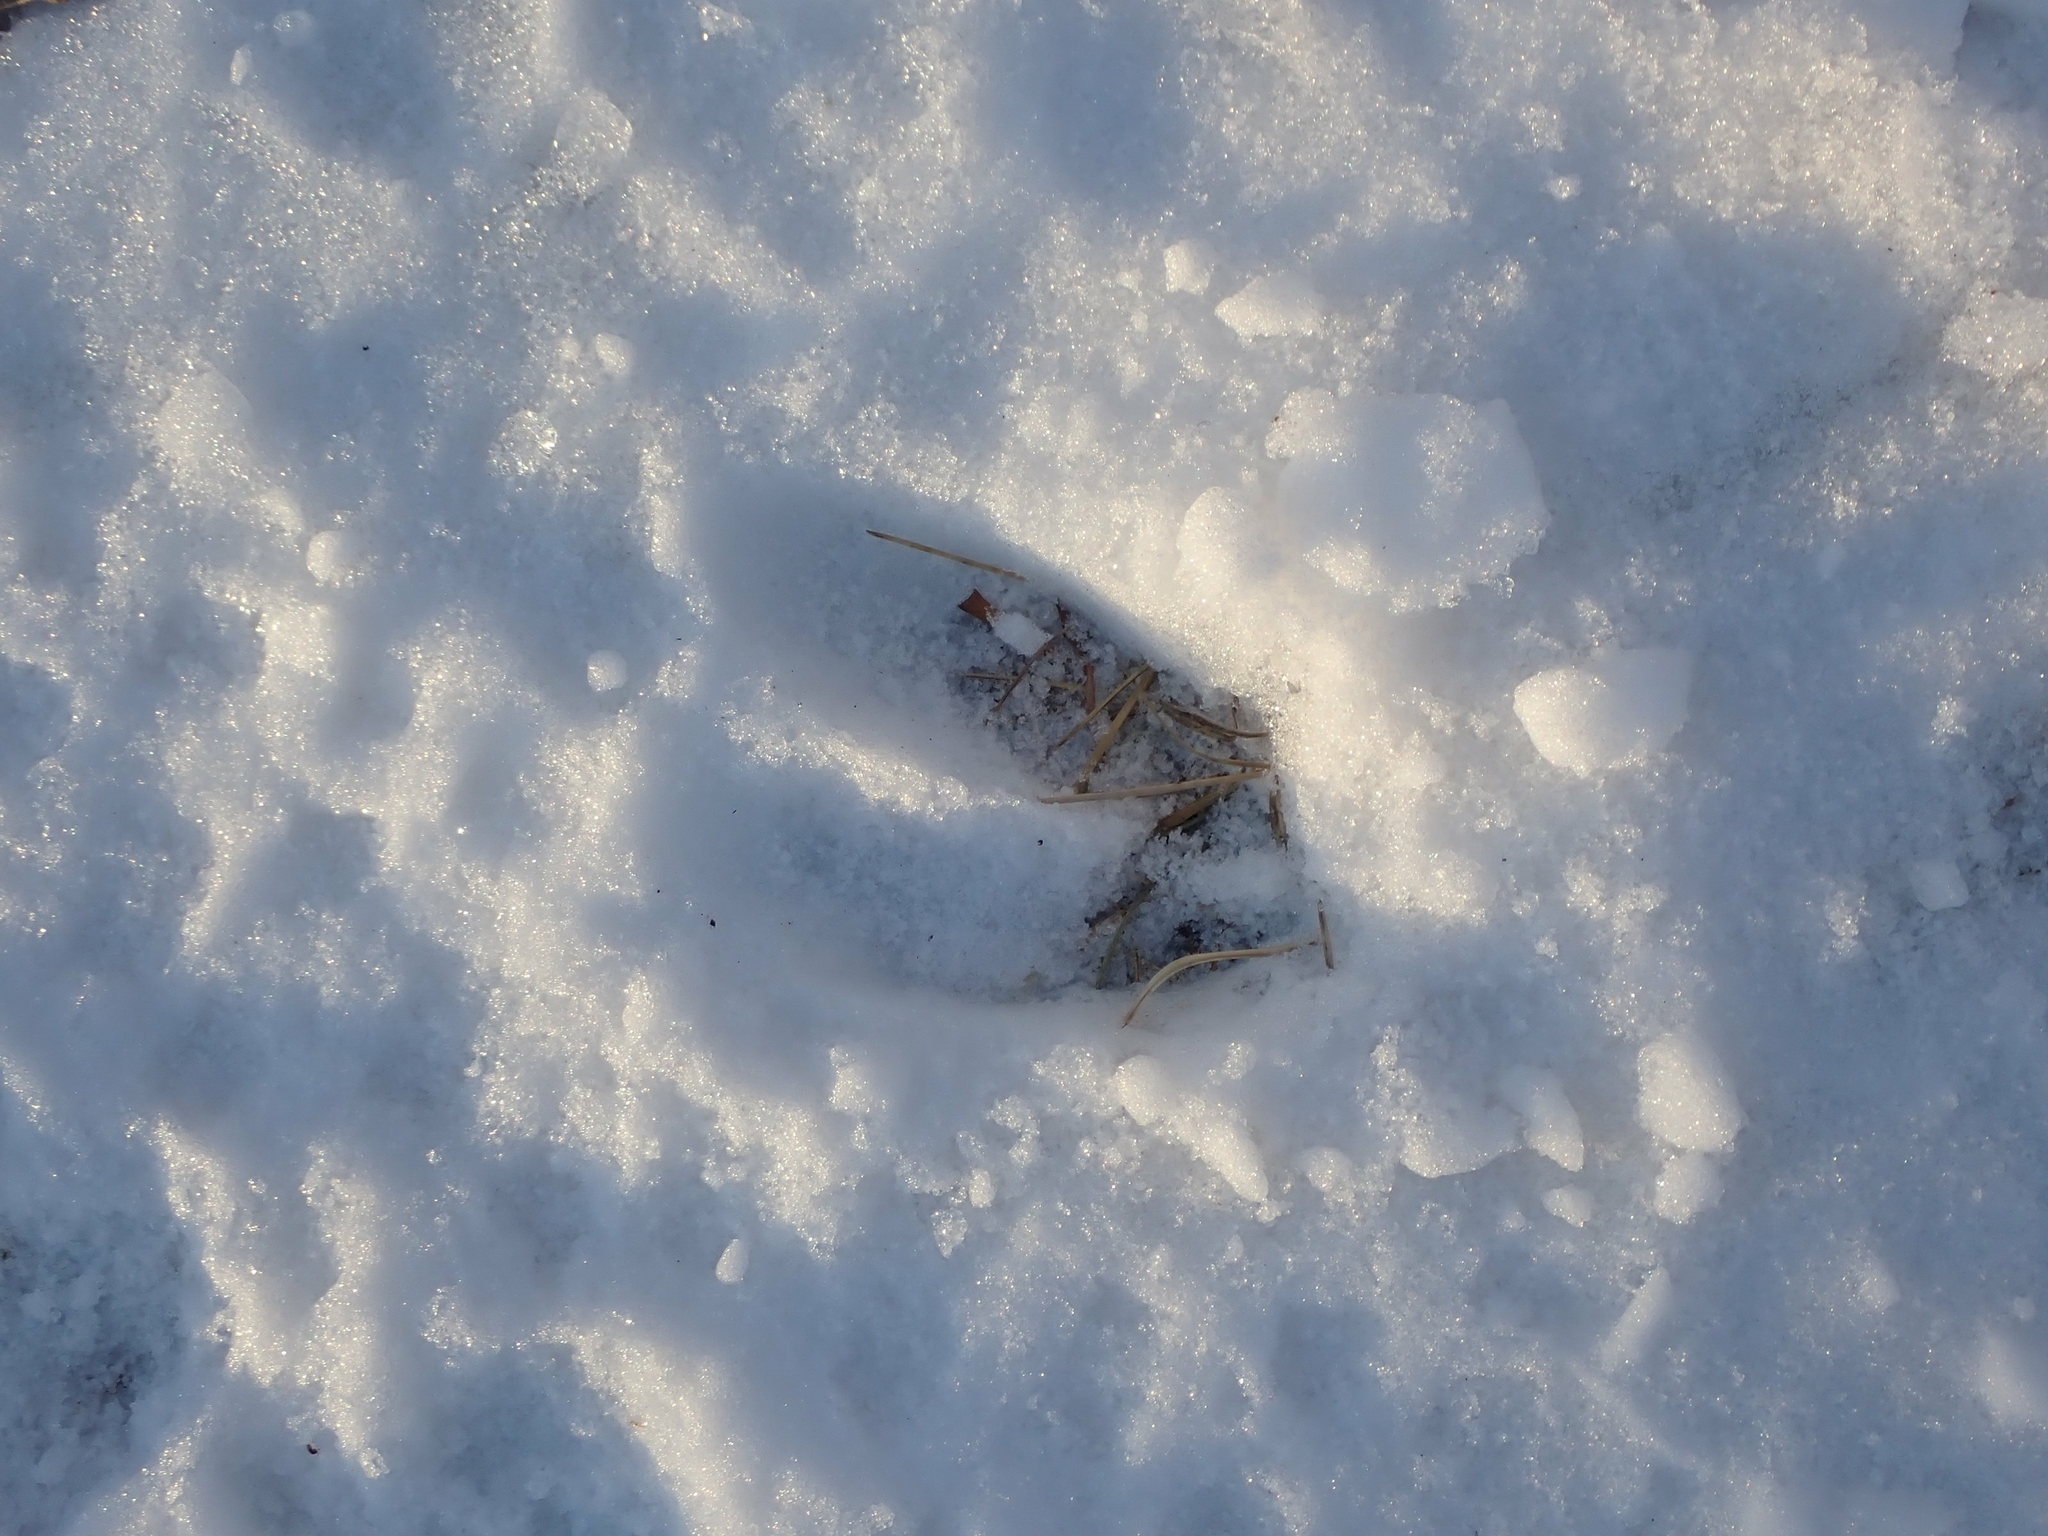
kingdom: Animalia
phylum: Chordata
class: Mammalia
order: Artiodactyla
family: Cervidae
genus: Odocoileus
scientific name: Odocoileus virginianus
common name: White-tailed deer
